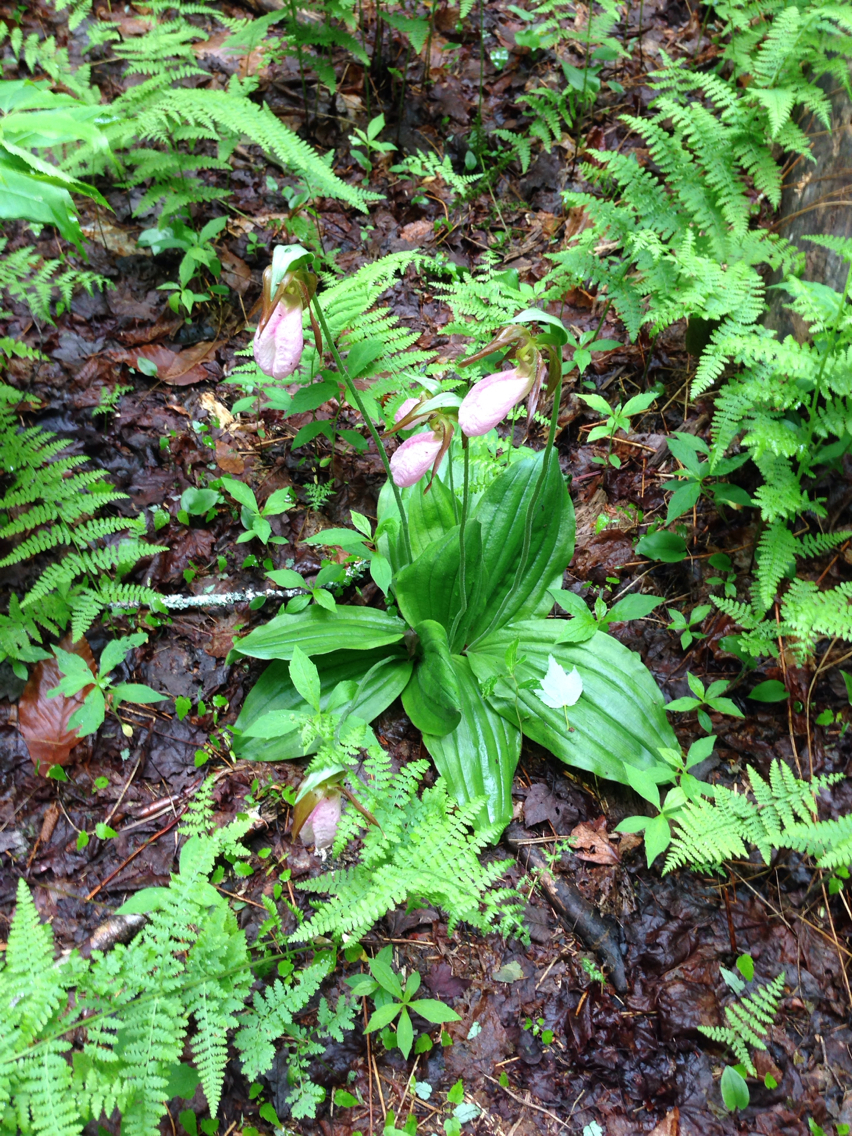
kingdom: Plantae
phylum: Tracheophyta
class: Liliopsida
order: Asparagales
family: Orchidaceae
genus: Cypripedium
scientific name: Cypripedium acaule
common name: Pink lady's-slipper
